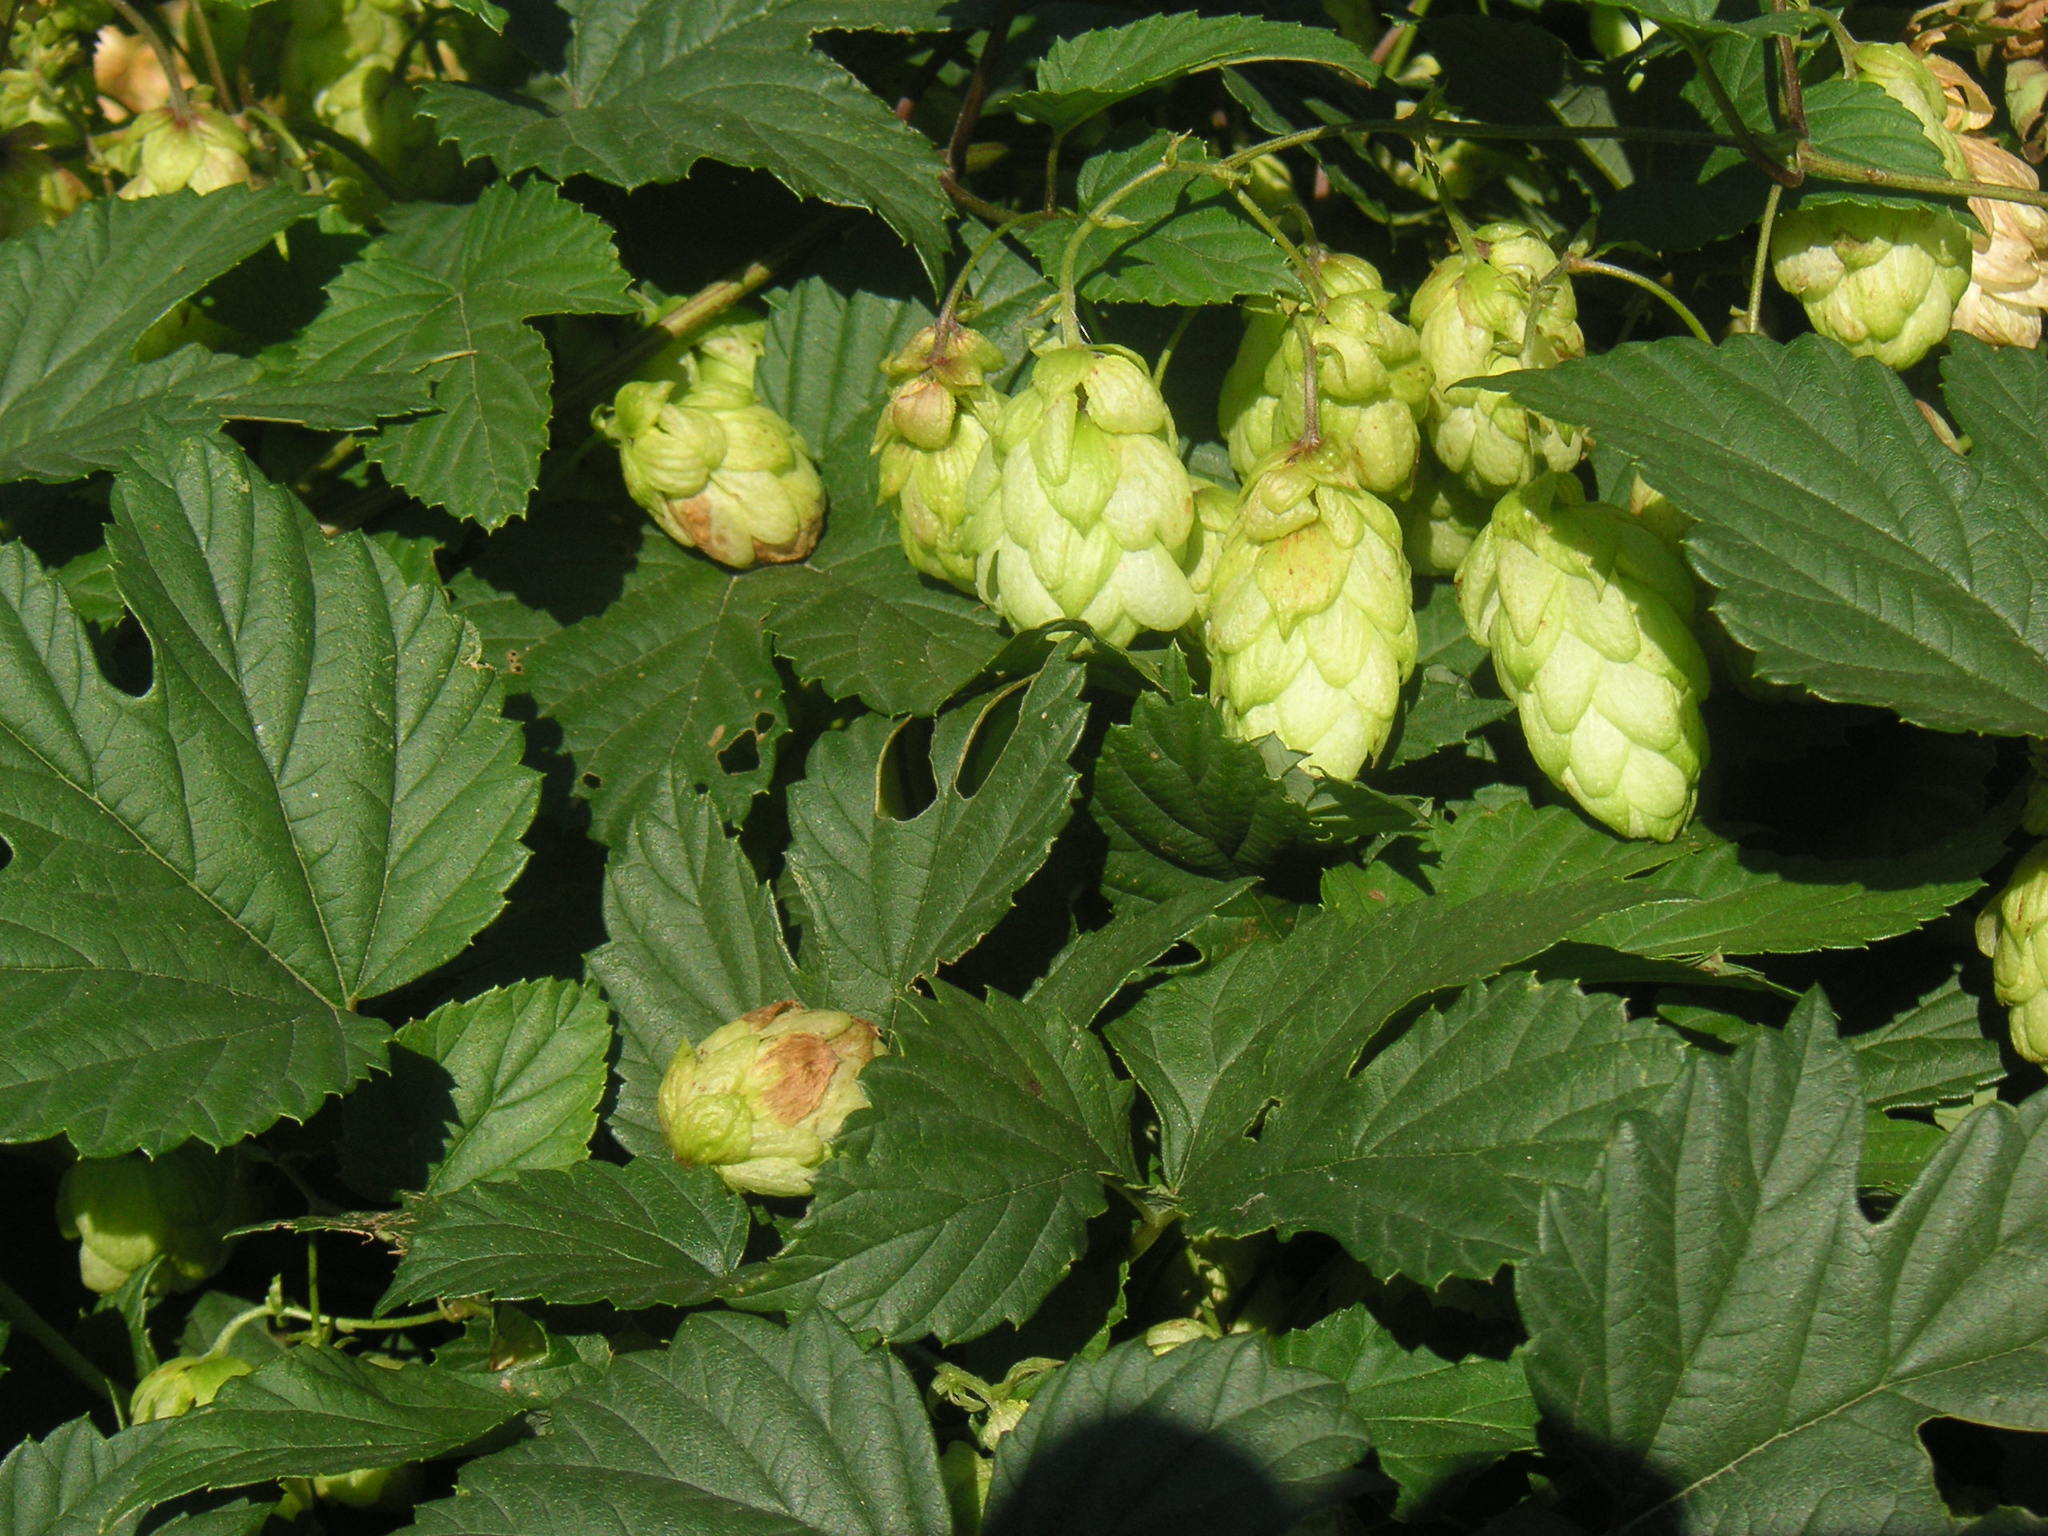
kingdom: Plantae
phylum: Tracheophyta
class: Magnoliopsida
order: Rosales
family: Cannabaceae
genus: Humulus
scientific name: Humulus lupulus
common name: Hop
